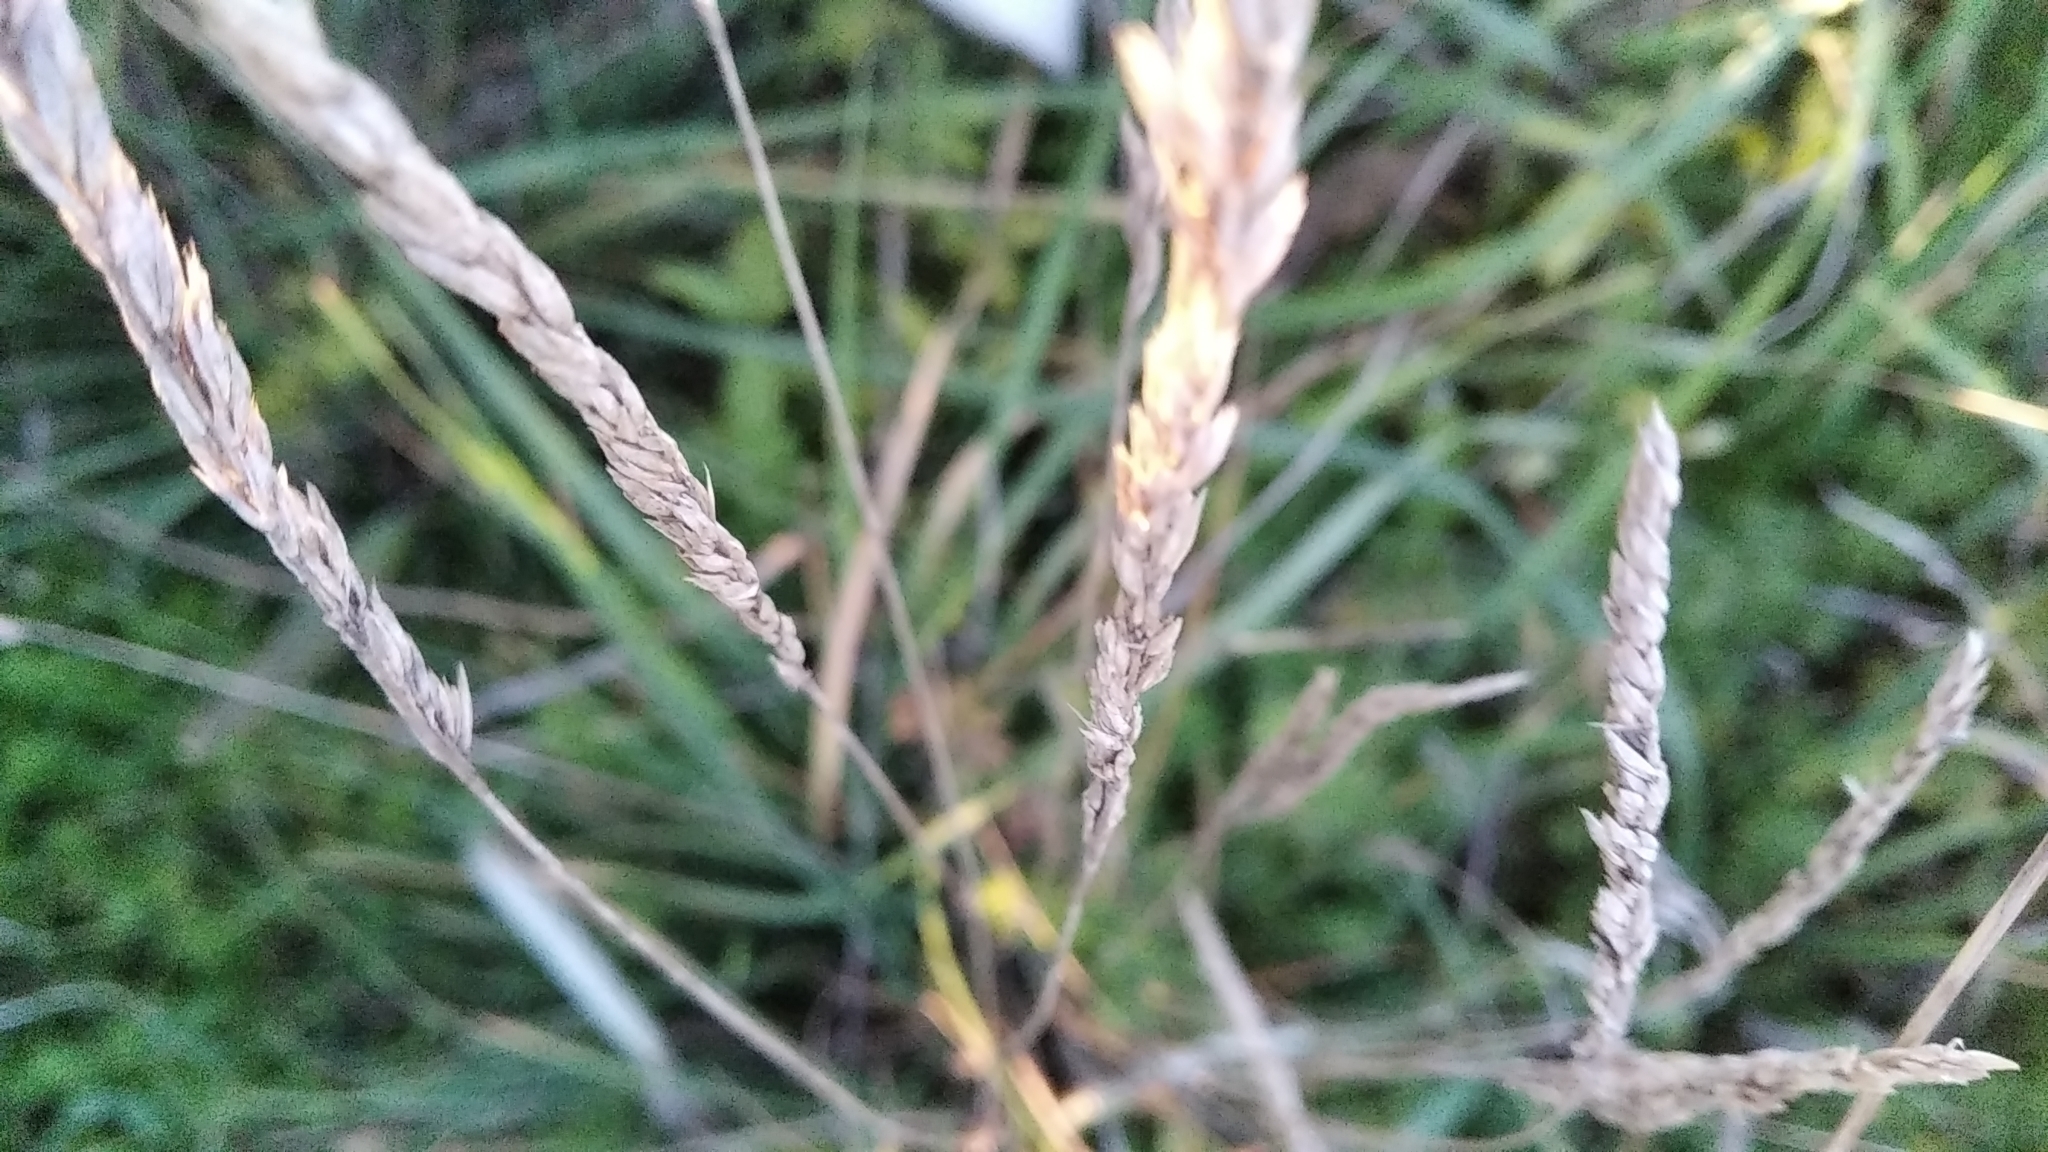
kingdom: Plantae
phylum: Tracheophyta
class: Liliopsida
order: Poales
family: Poaceae
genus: Koeleria
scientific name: Koeleria macrantha
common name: Crested hair-grass
